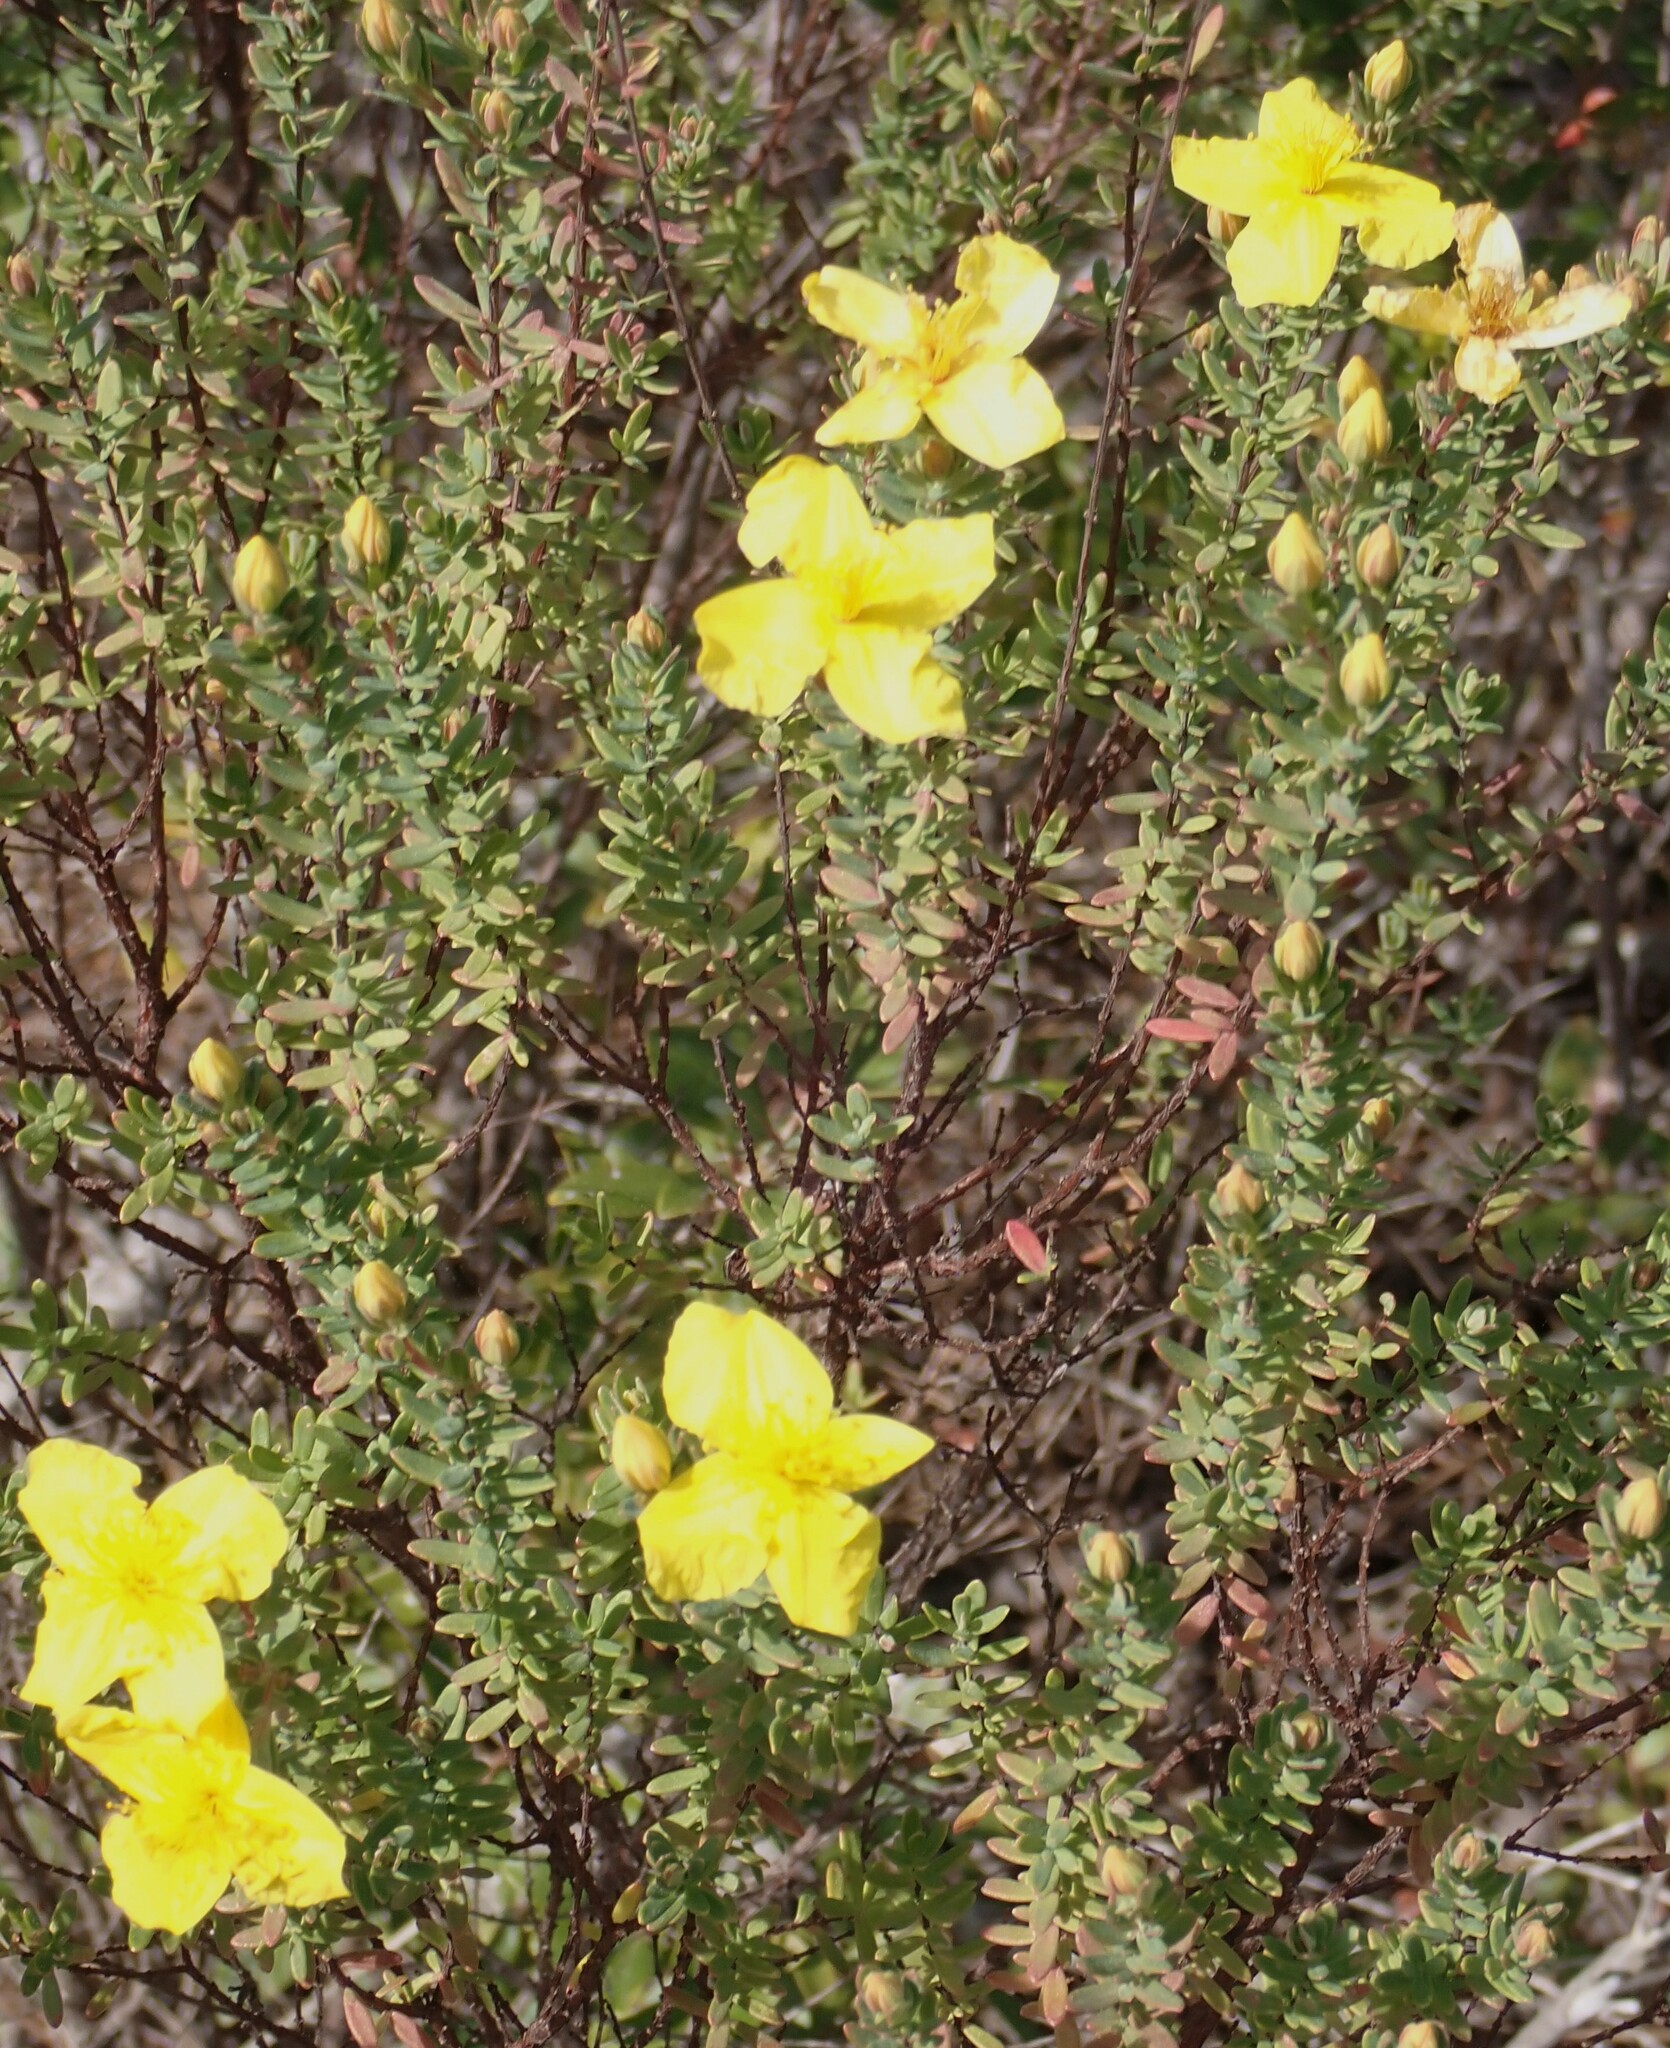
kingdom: Plantae
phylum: Tracheophyta
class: Magnoliopsida
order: Malpighiales
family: Hypericaceae
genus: Hypericum
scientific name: Hypericum microsepalum
